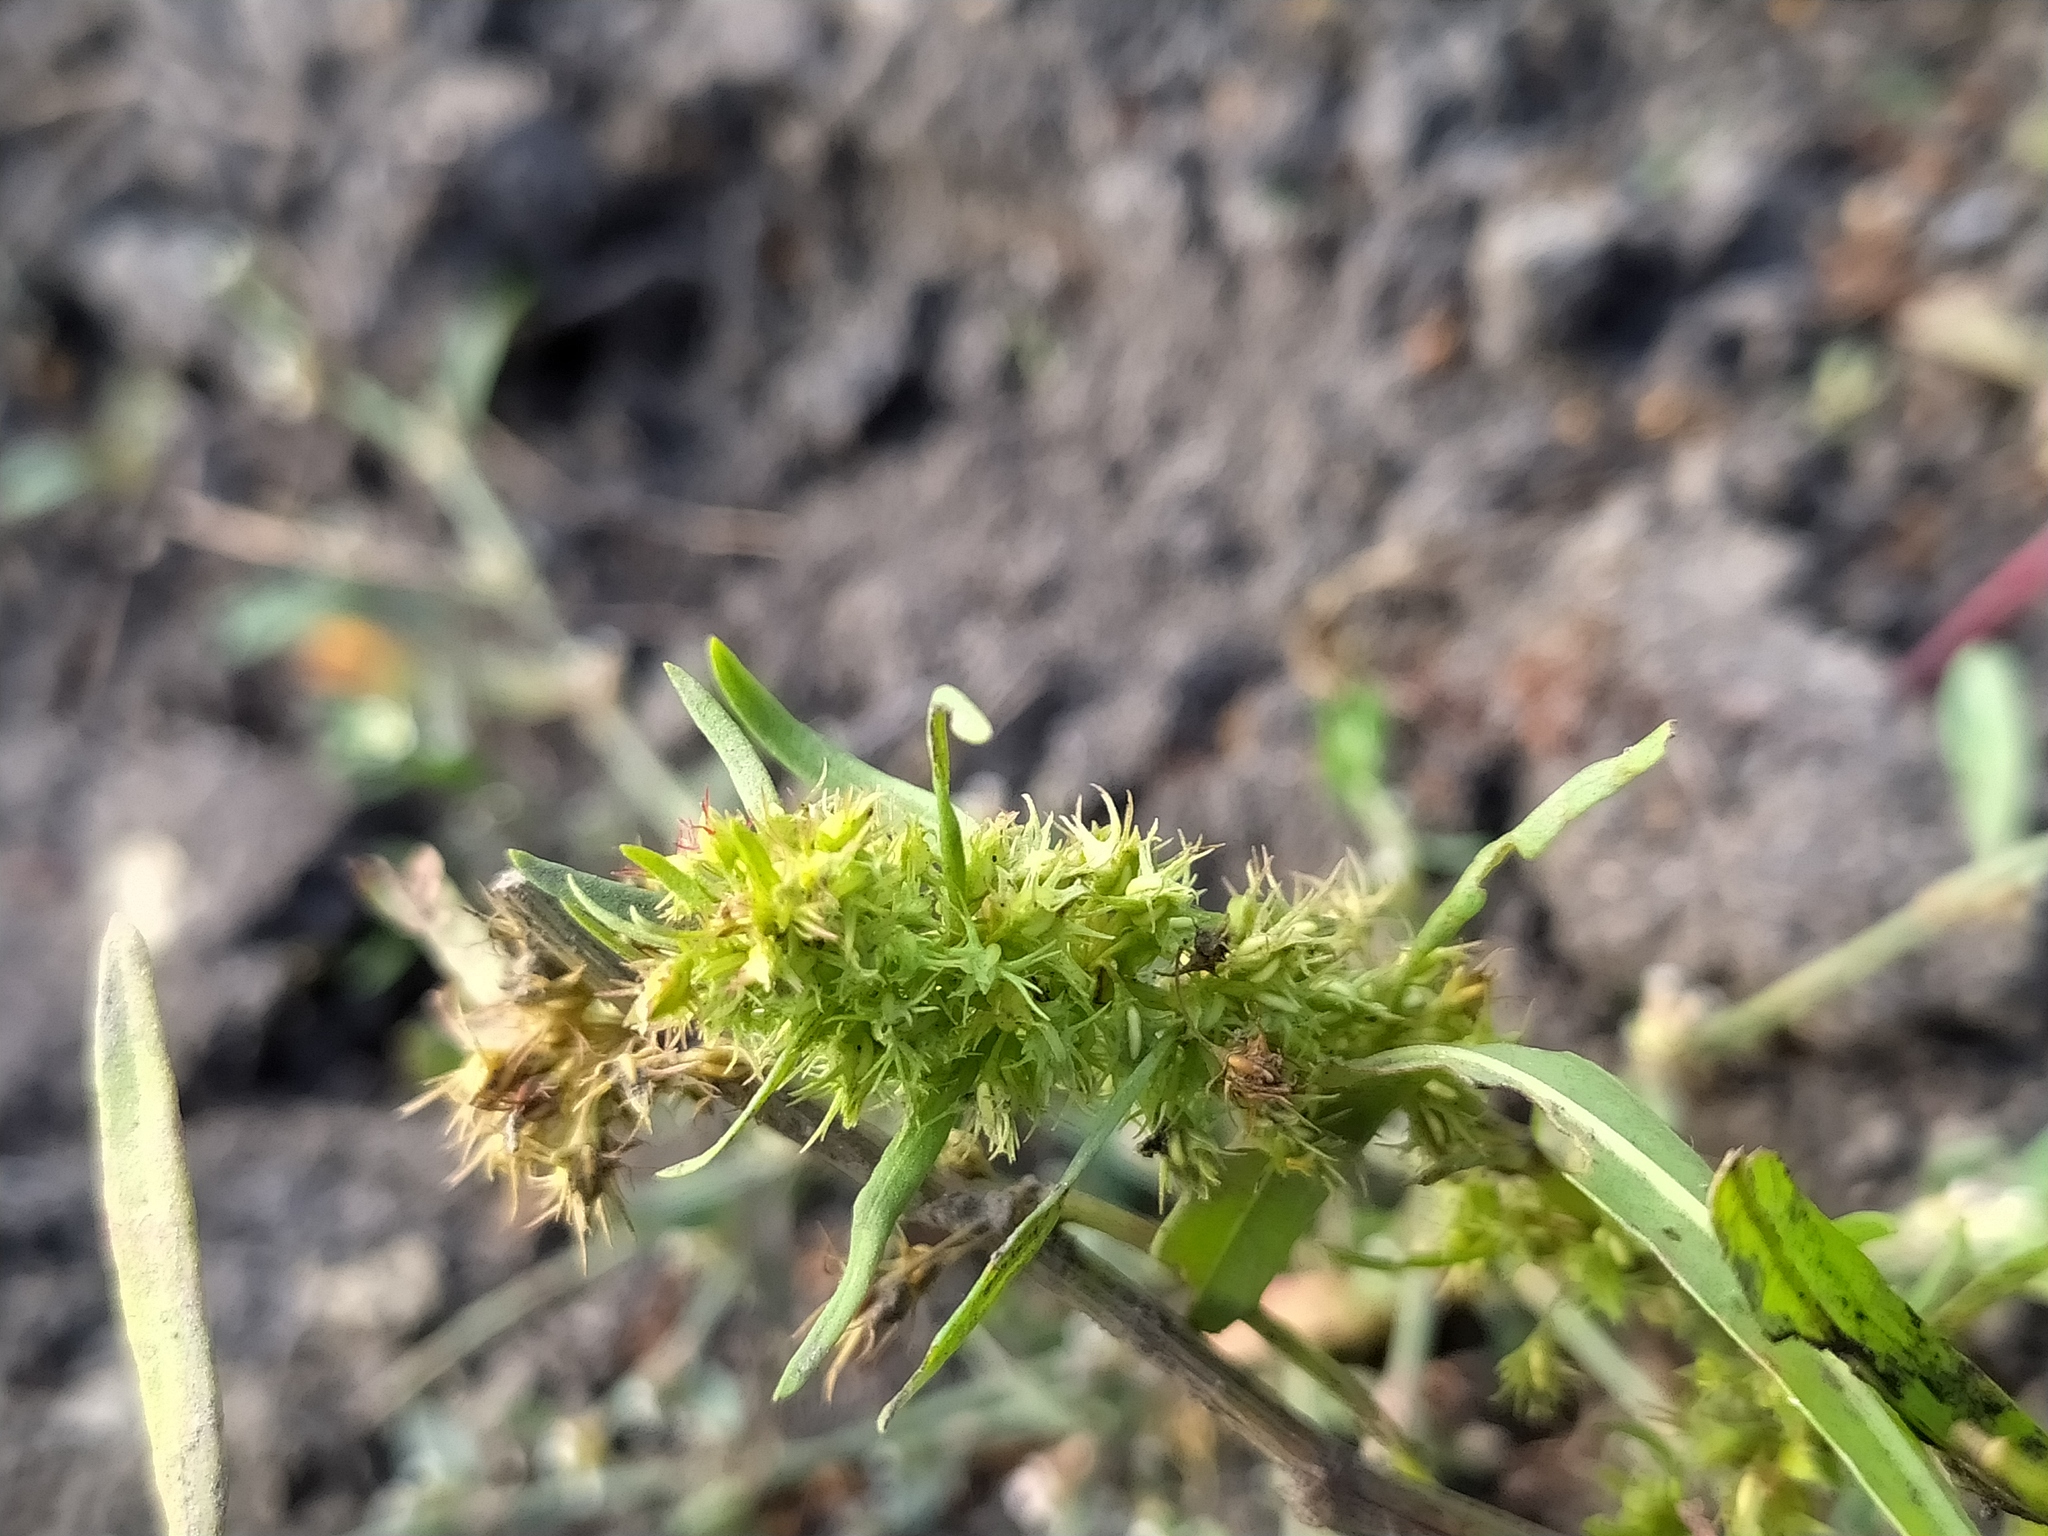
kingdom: Plantae
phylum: Tracheophyta
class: Magnoliopsida
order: Caryophyllales
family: Polygonaceae
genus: Rumex
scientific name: Rumex maritimus
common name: Golden dock
